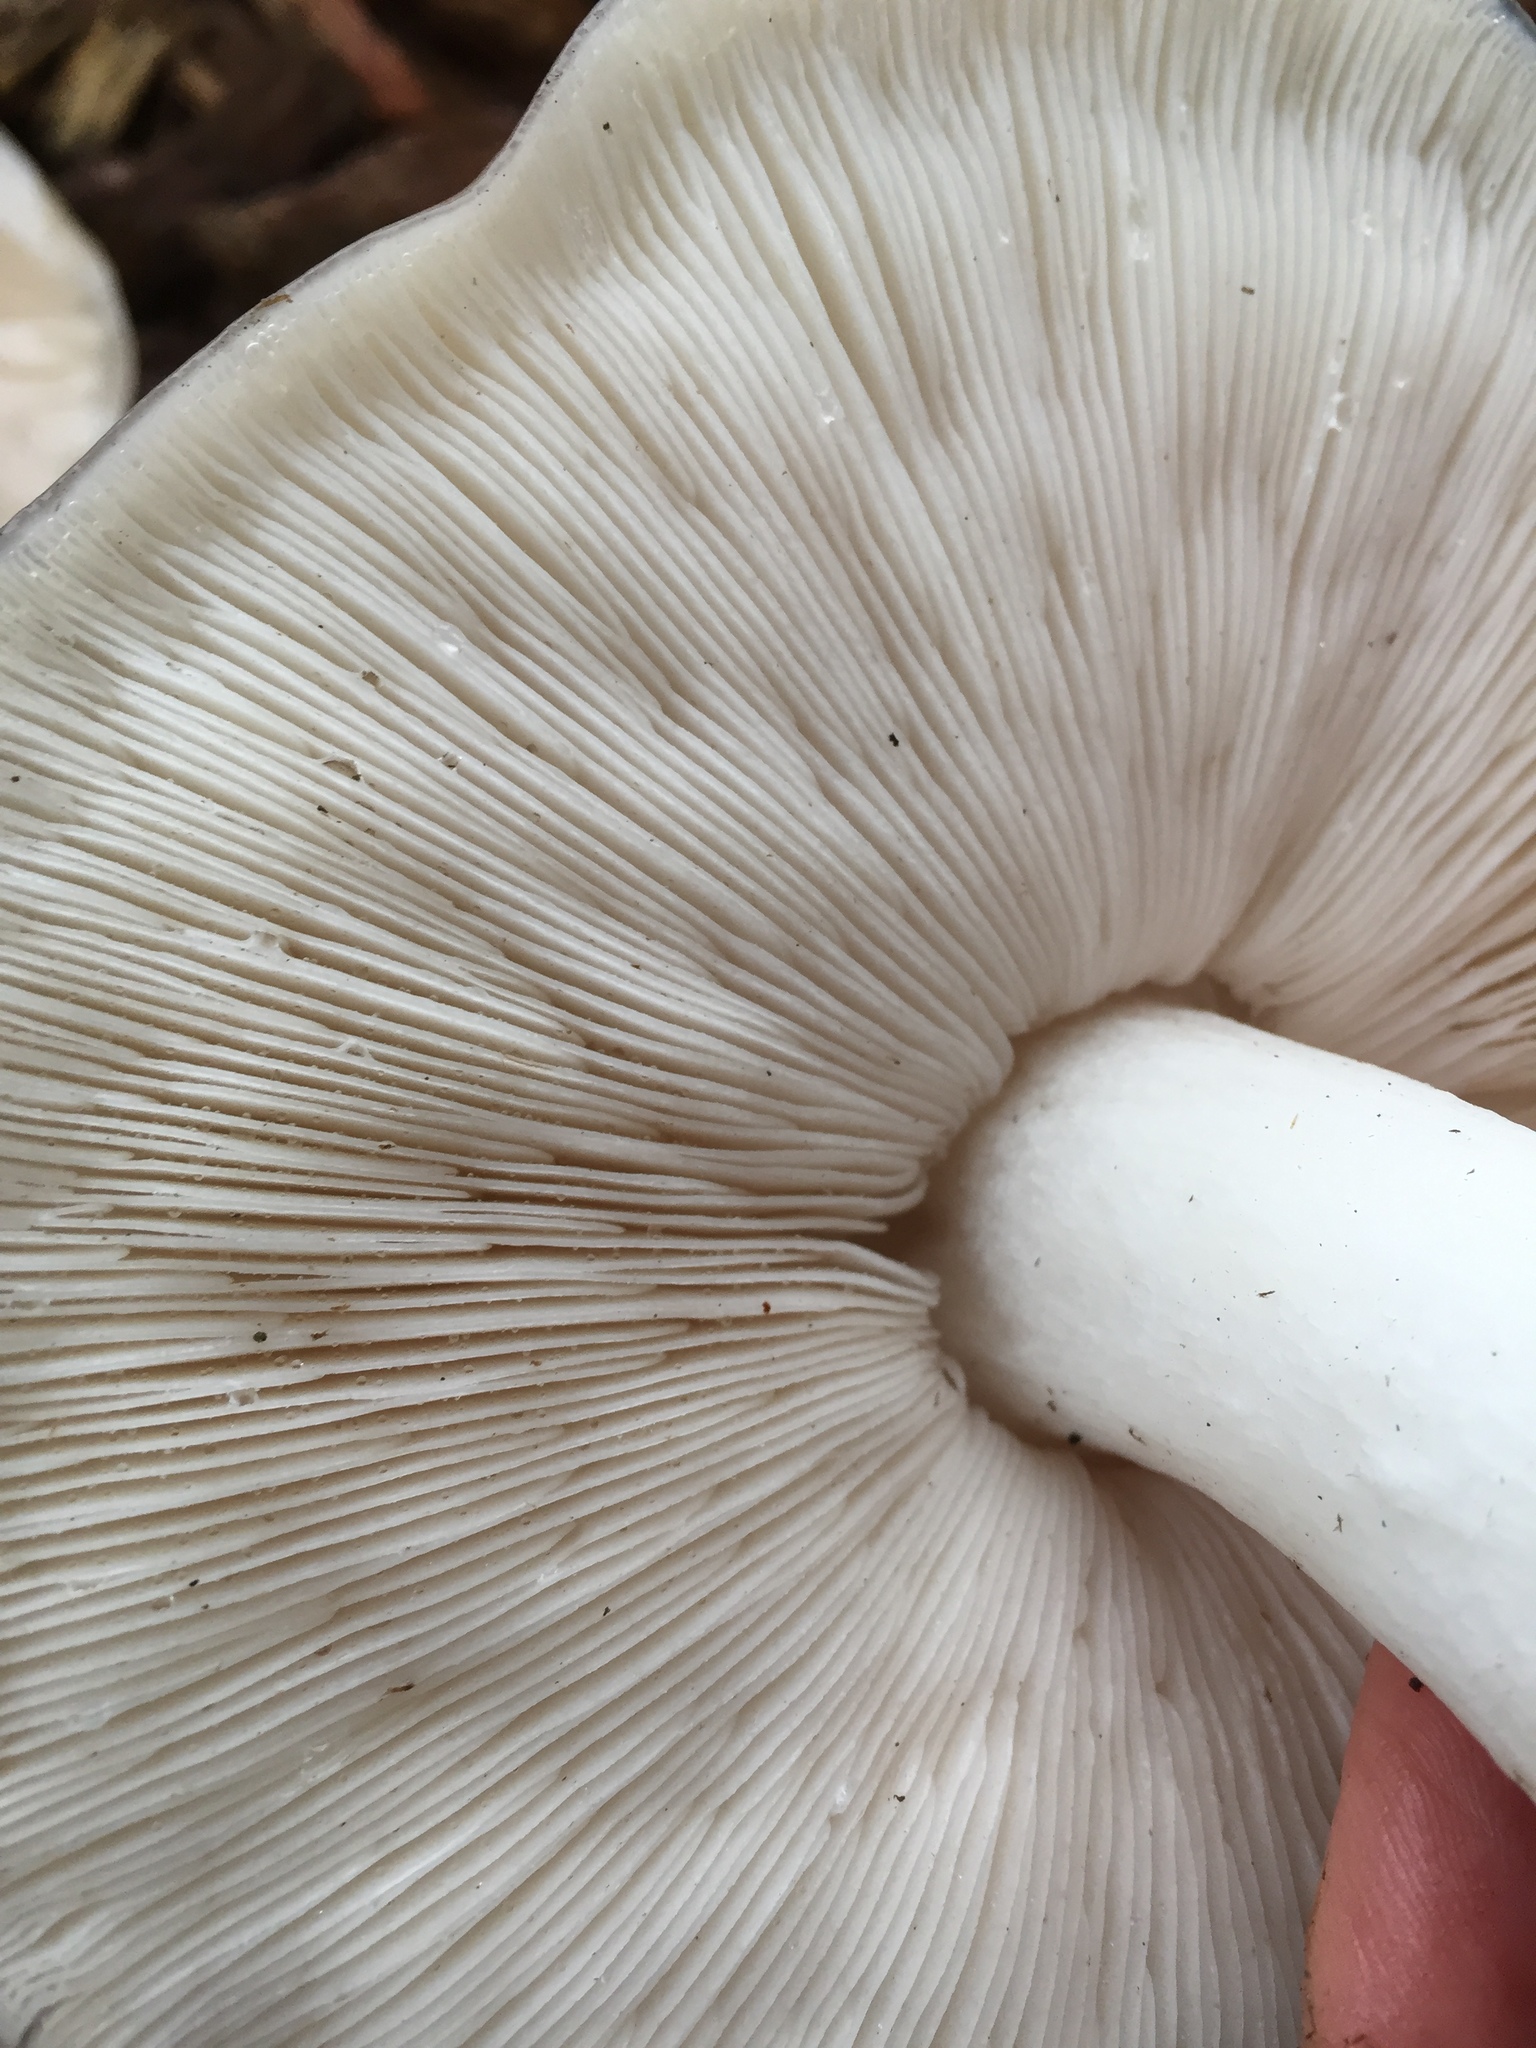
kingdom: Fungi
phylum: Basidiomycota
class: Agaricomycetes
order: Agaricales
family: Pluteaceae
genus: Pluteus
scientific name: Pluteus petasatus
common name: Scaly shield
